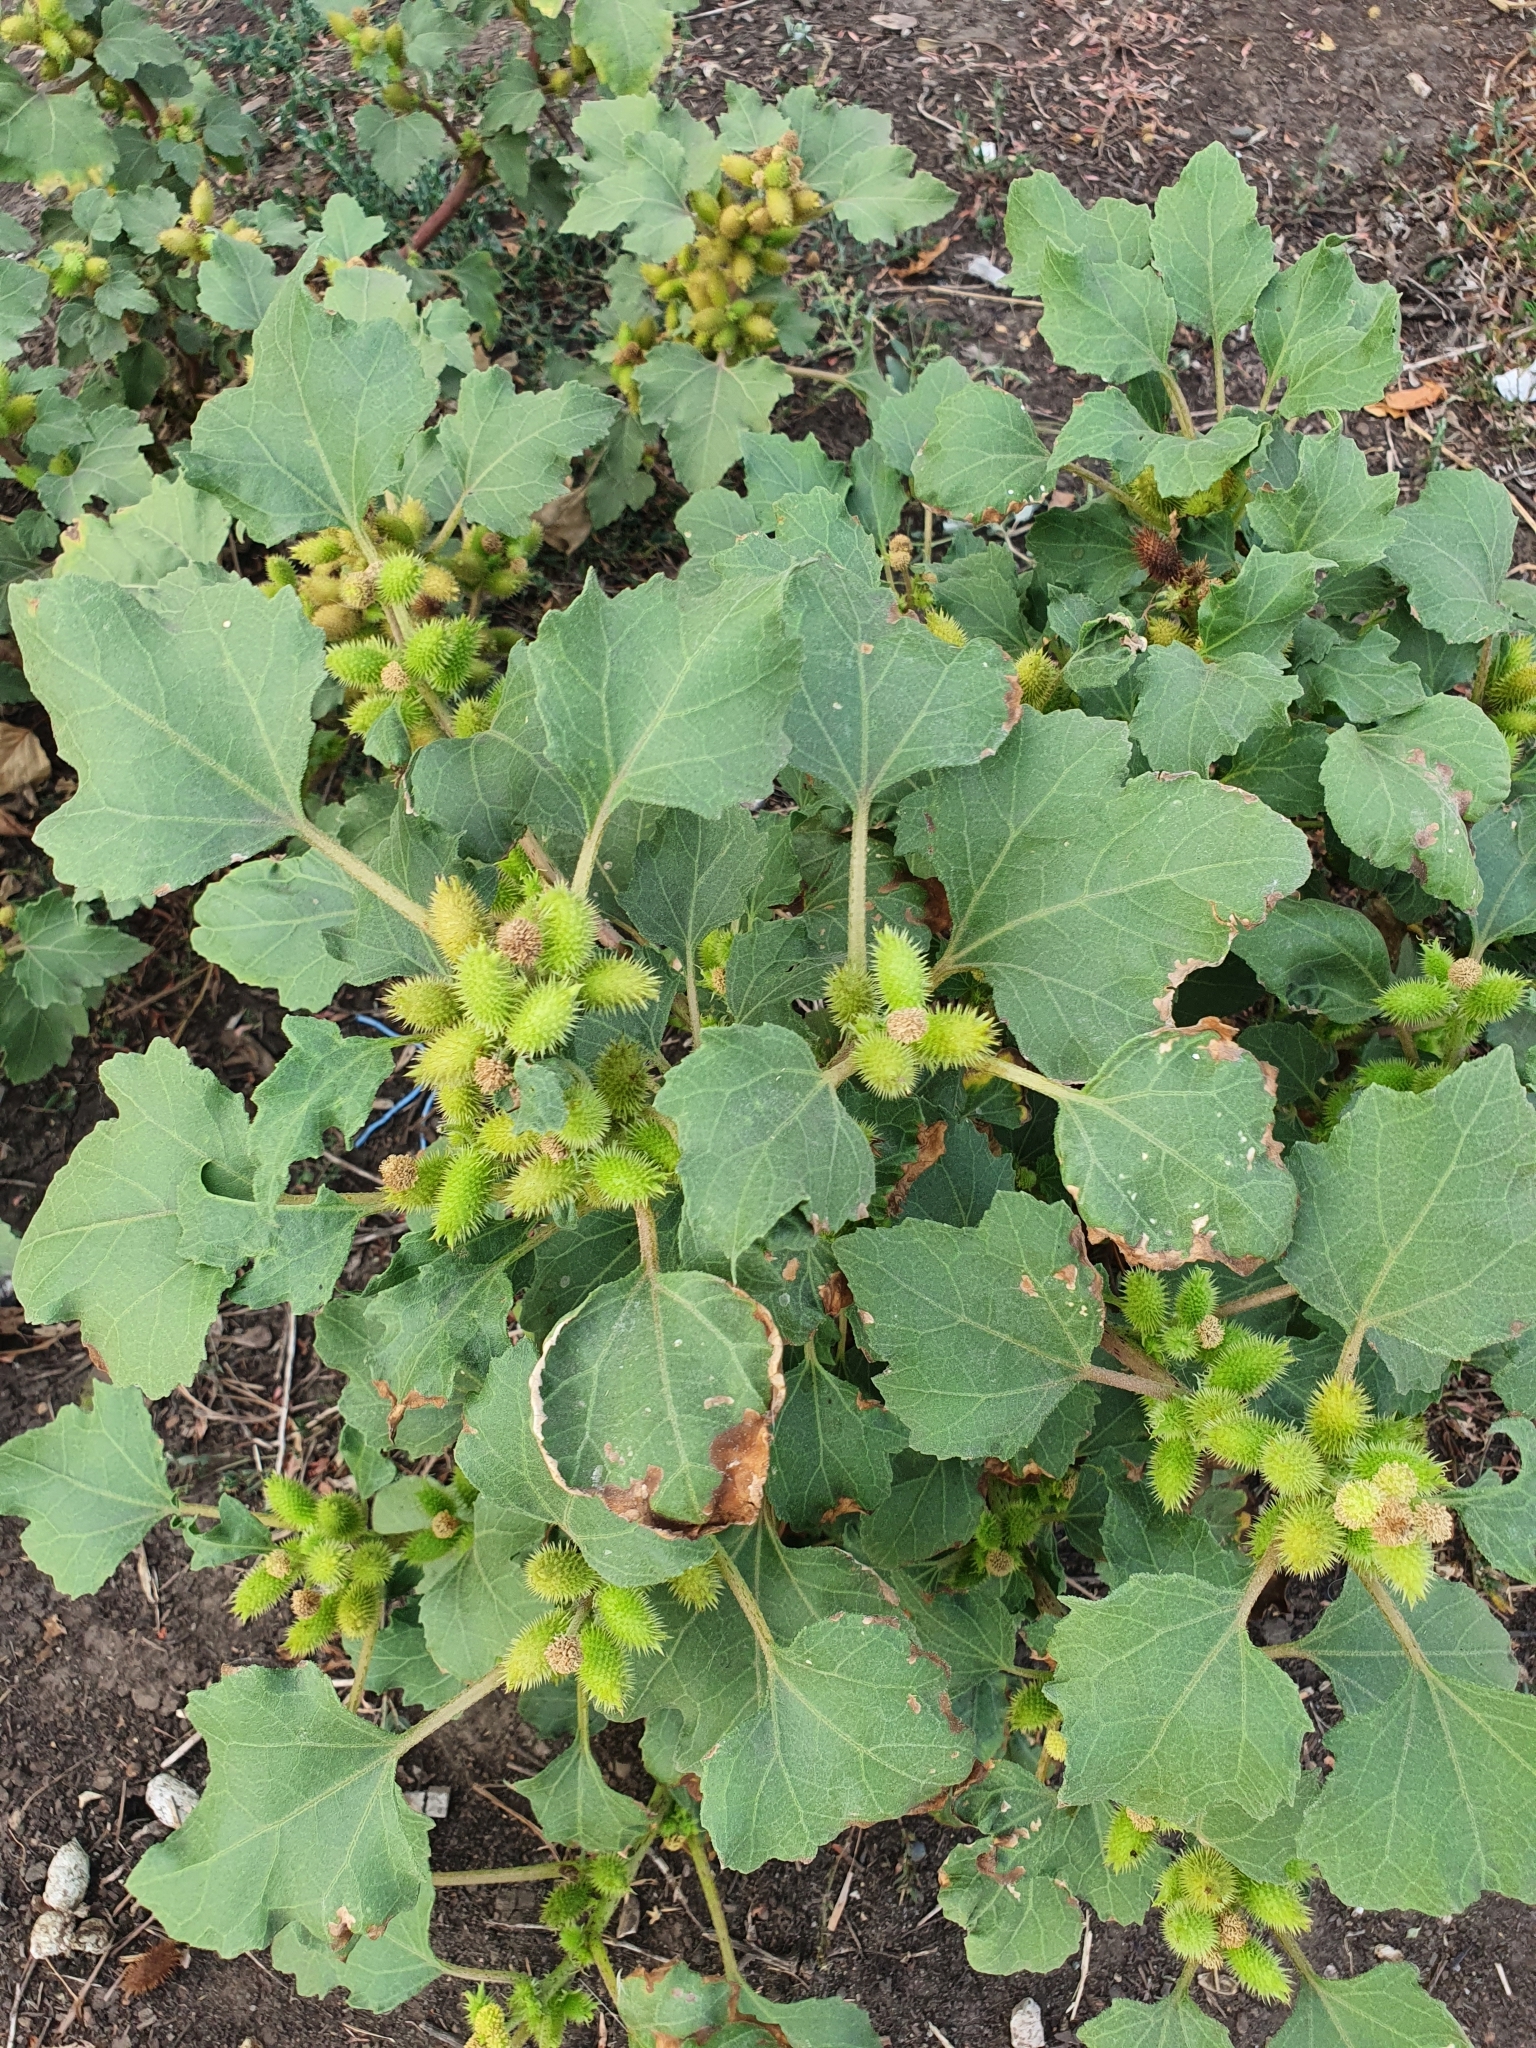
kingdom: Plantae
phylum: Tracheophyta
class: Magnoliopsida
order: Asterales
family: Asteraceae
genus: Xanthium
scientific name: Xanthium orientale
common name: Californian burr
